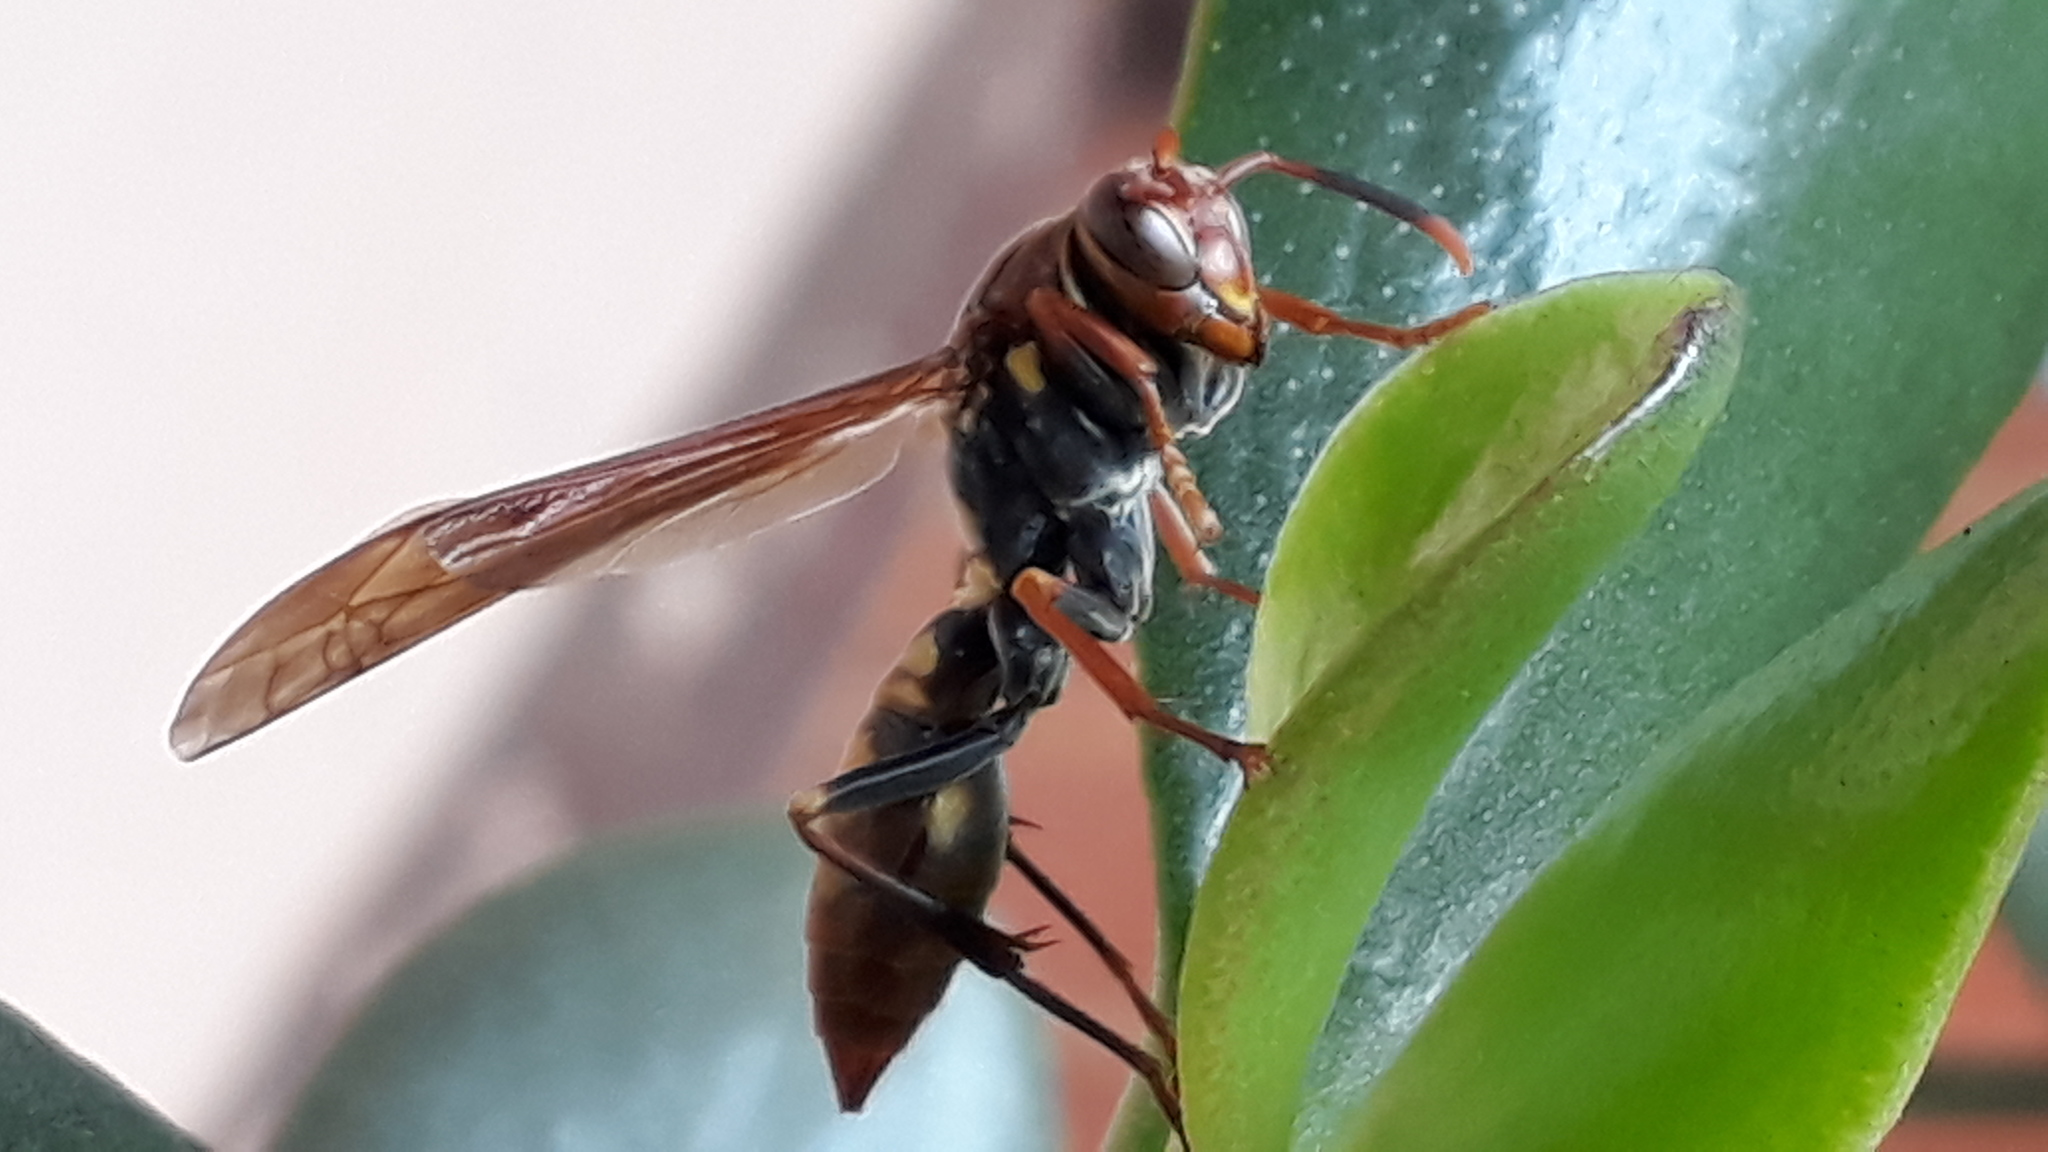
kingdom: Animalia
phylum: Arthropoda
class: Insecta
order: Hymenoptera
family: Eumenidae
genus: Polistes
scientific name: Polistes versicolor
